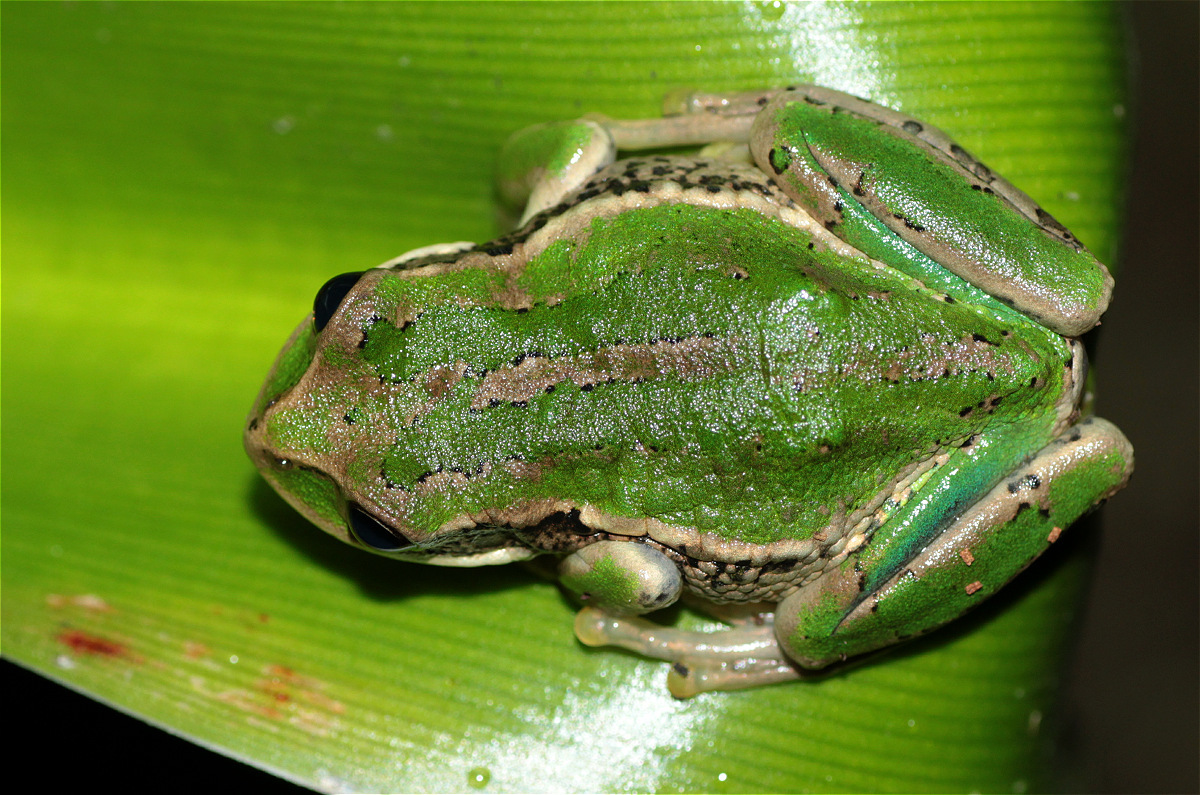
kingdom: Animalia
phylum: Chordata
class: Amphibia
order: Anura
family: Hemiphractidae
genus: Gastrotheca
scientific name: Gastrotheca cuencana
